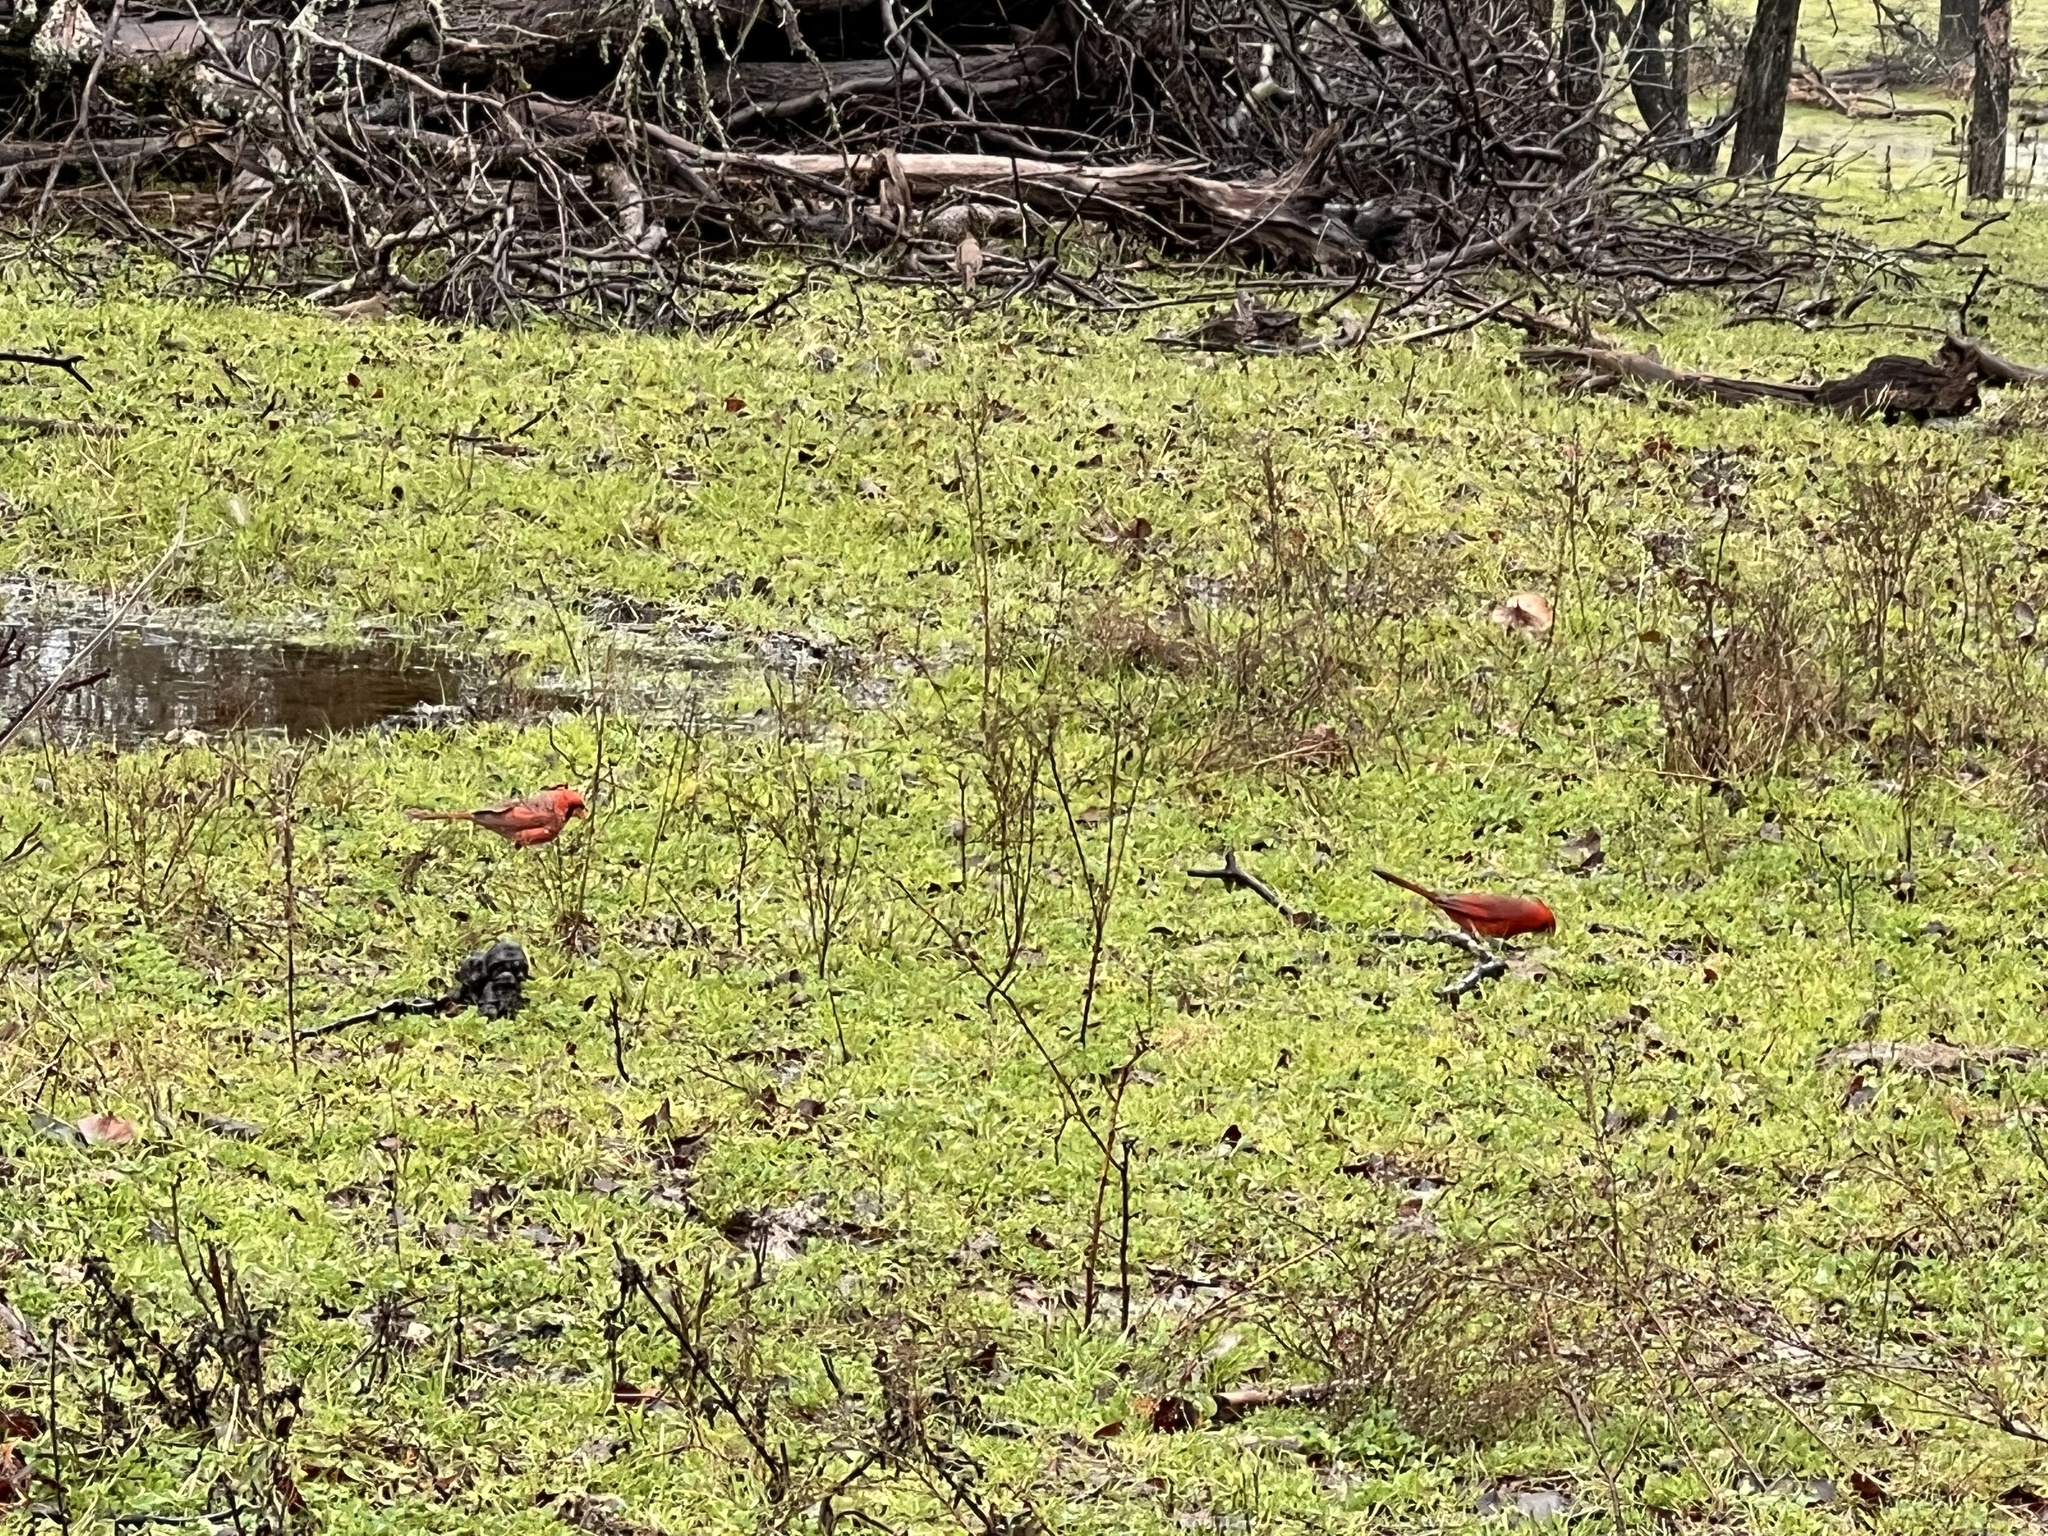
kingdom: Animalia
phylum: Chordata
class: Aves
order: Passeriformes
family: Cardinalidae
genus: Cardinalis
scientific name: Cardinalis cardinalis
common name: Northern cardinal
